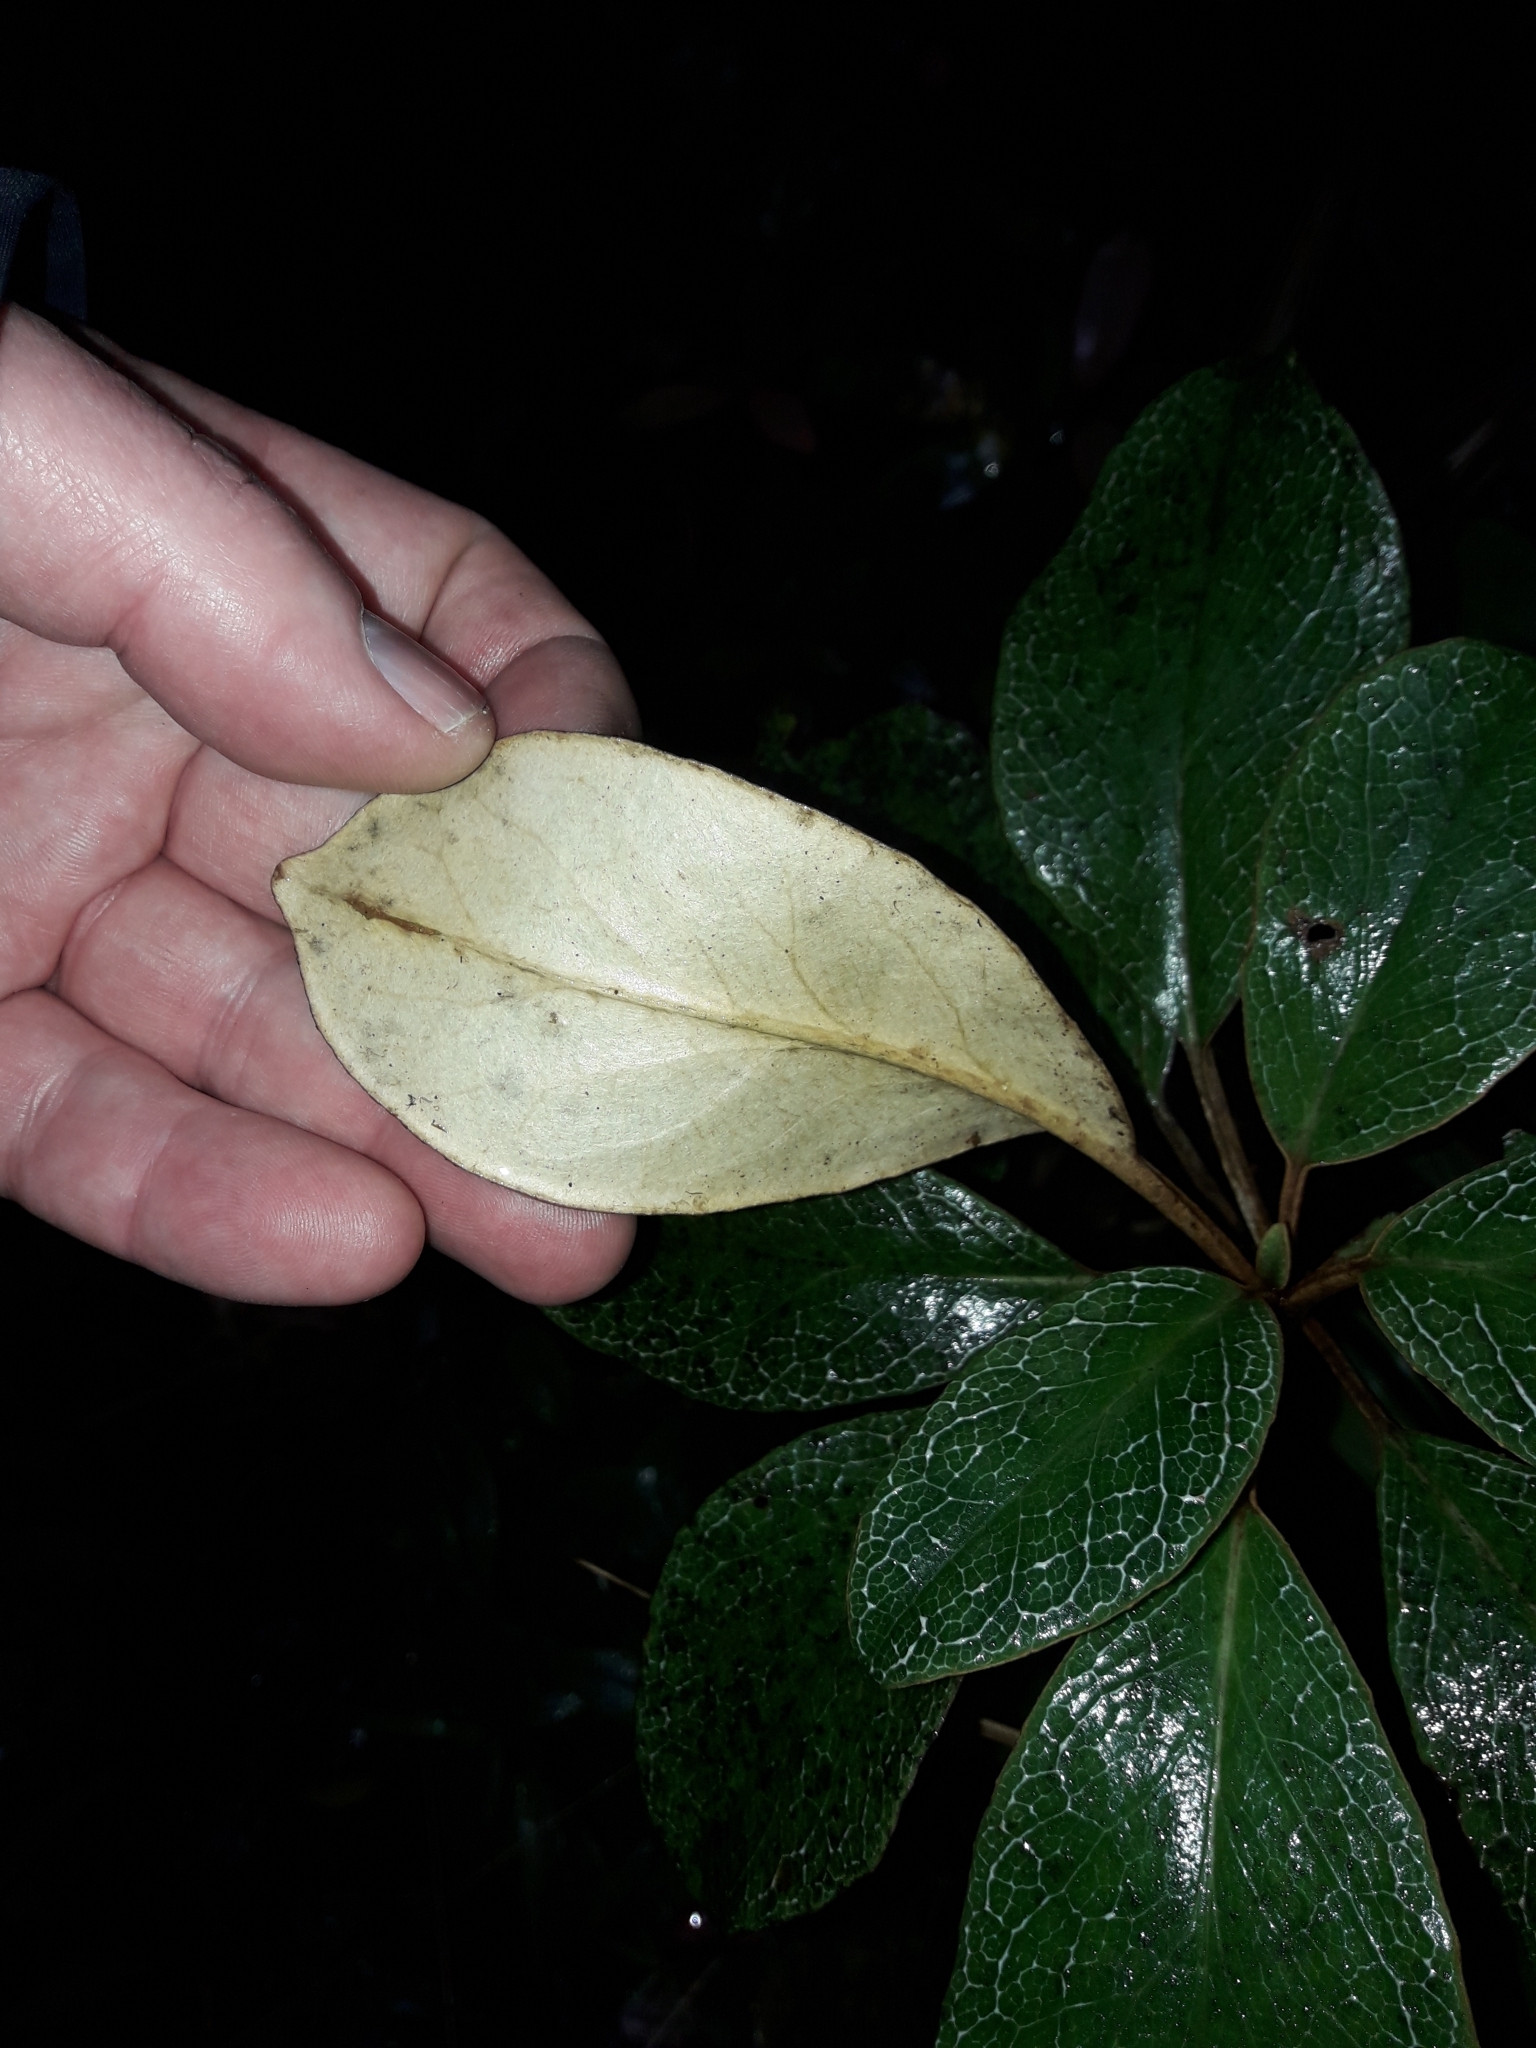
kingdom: Plantae
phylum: Tracheophyta
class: Magnoliopsida
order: Asterales
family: Asteraceae
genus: Brachyglottis
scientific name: Brachyglottis elaeagnifolia
